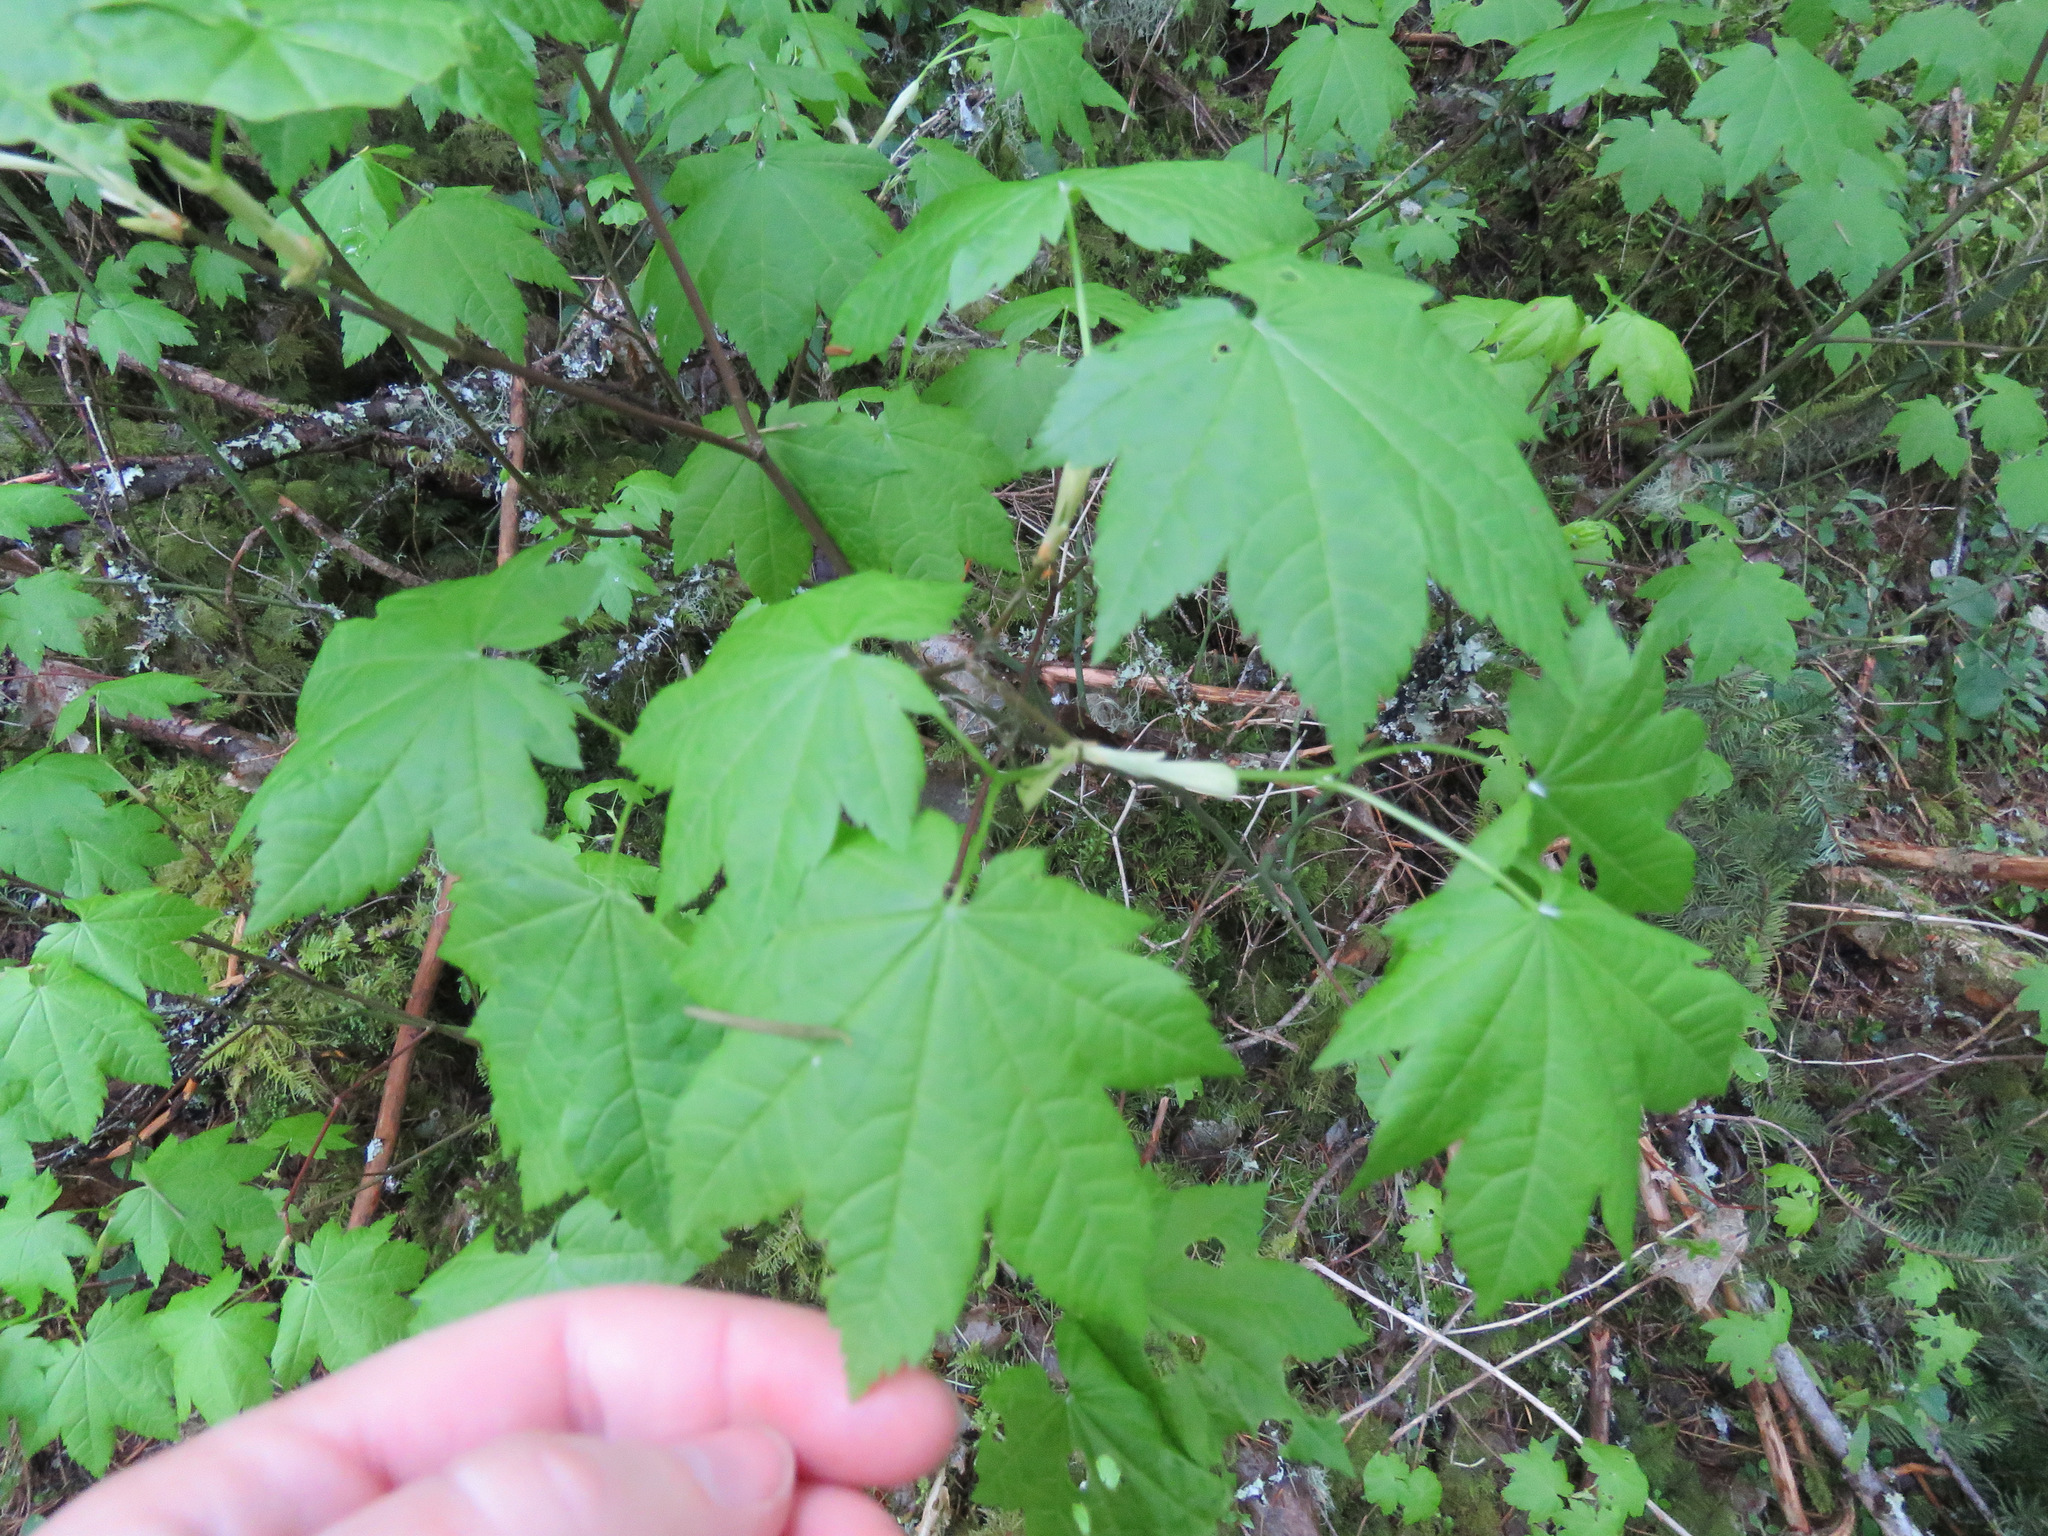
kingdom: Plantae
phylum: Tracheophyta
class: Magnoliopsida
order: Sapindales
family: Sapindaceae
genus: Acer
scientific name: Acer circinatum
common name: Vine maple
